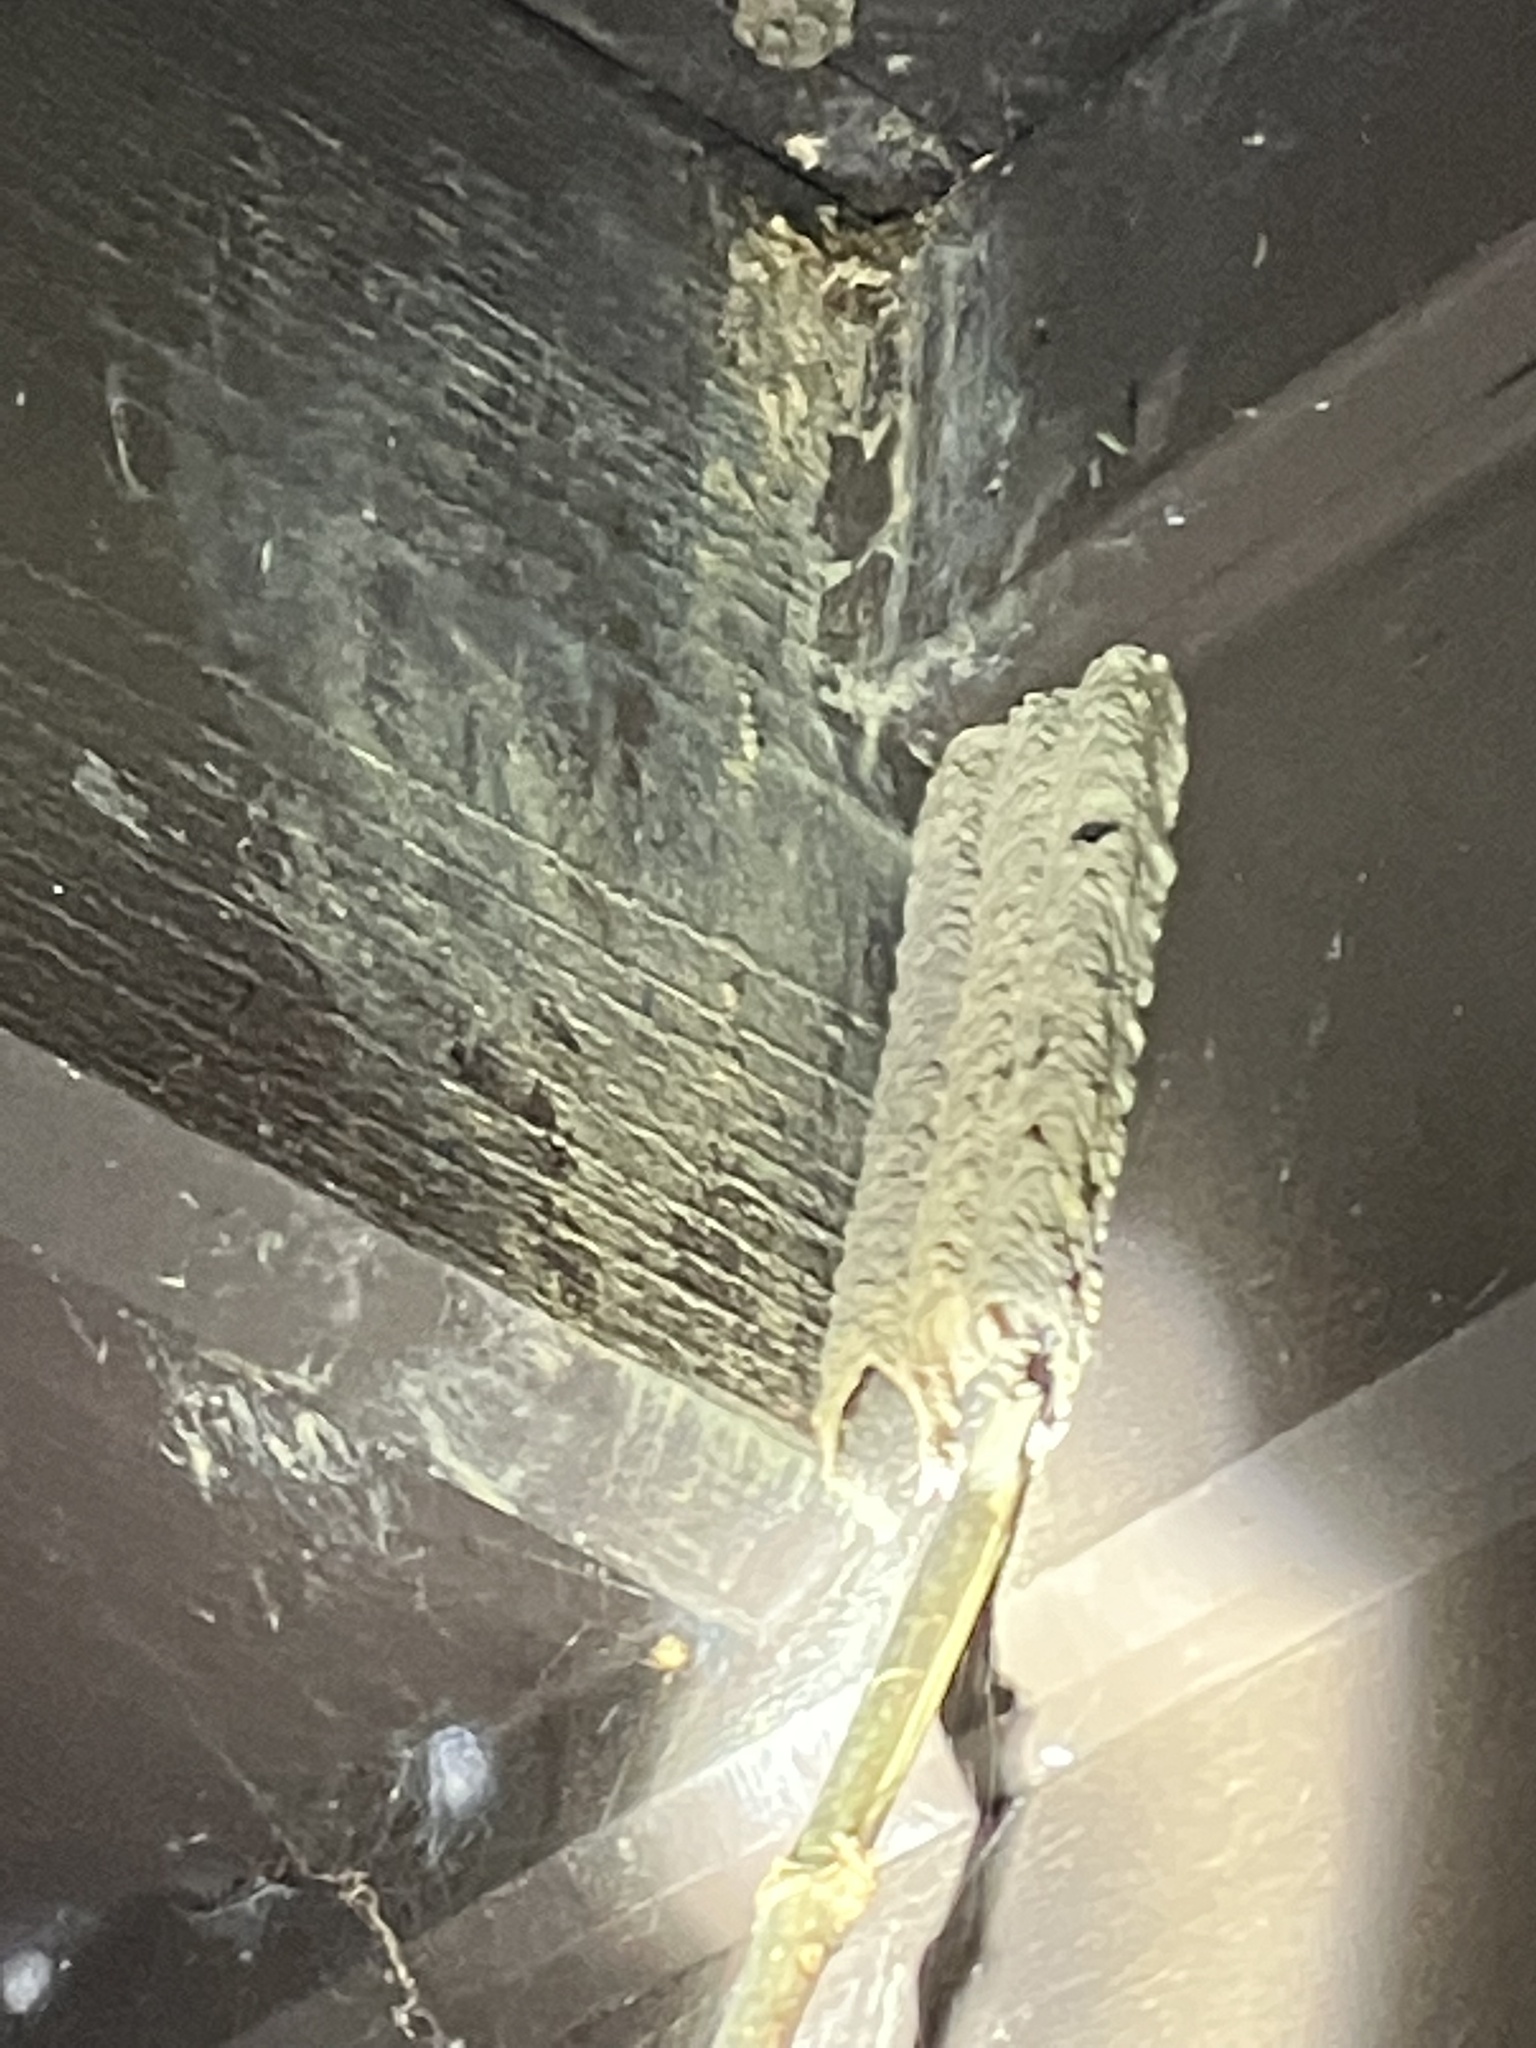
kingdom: Animalia
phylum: Arthropoda
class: Insecta
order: Hymenoptera
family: Crabronidae
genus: Trypoxylon
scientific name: Trypoxylon politum
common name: Organ-pipe mud-dauber wasp
